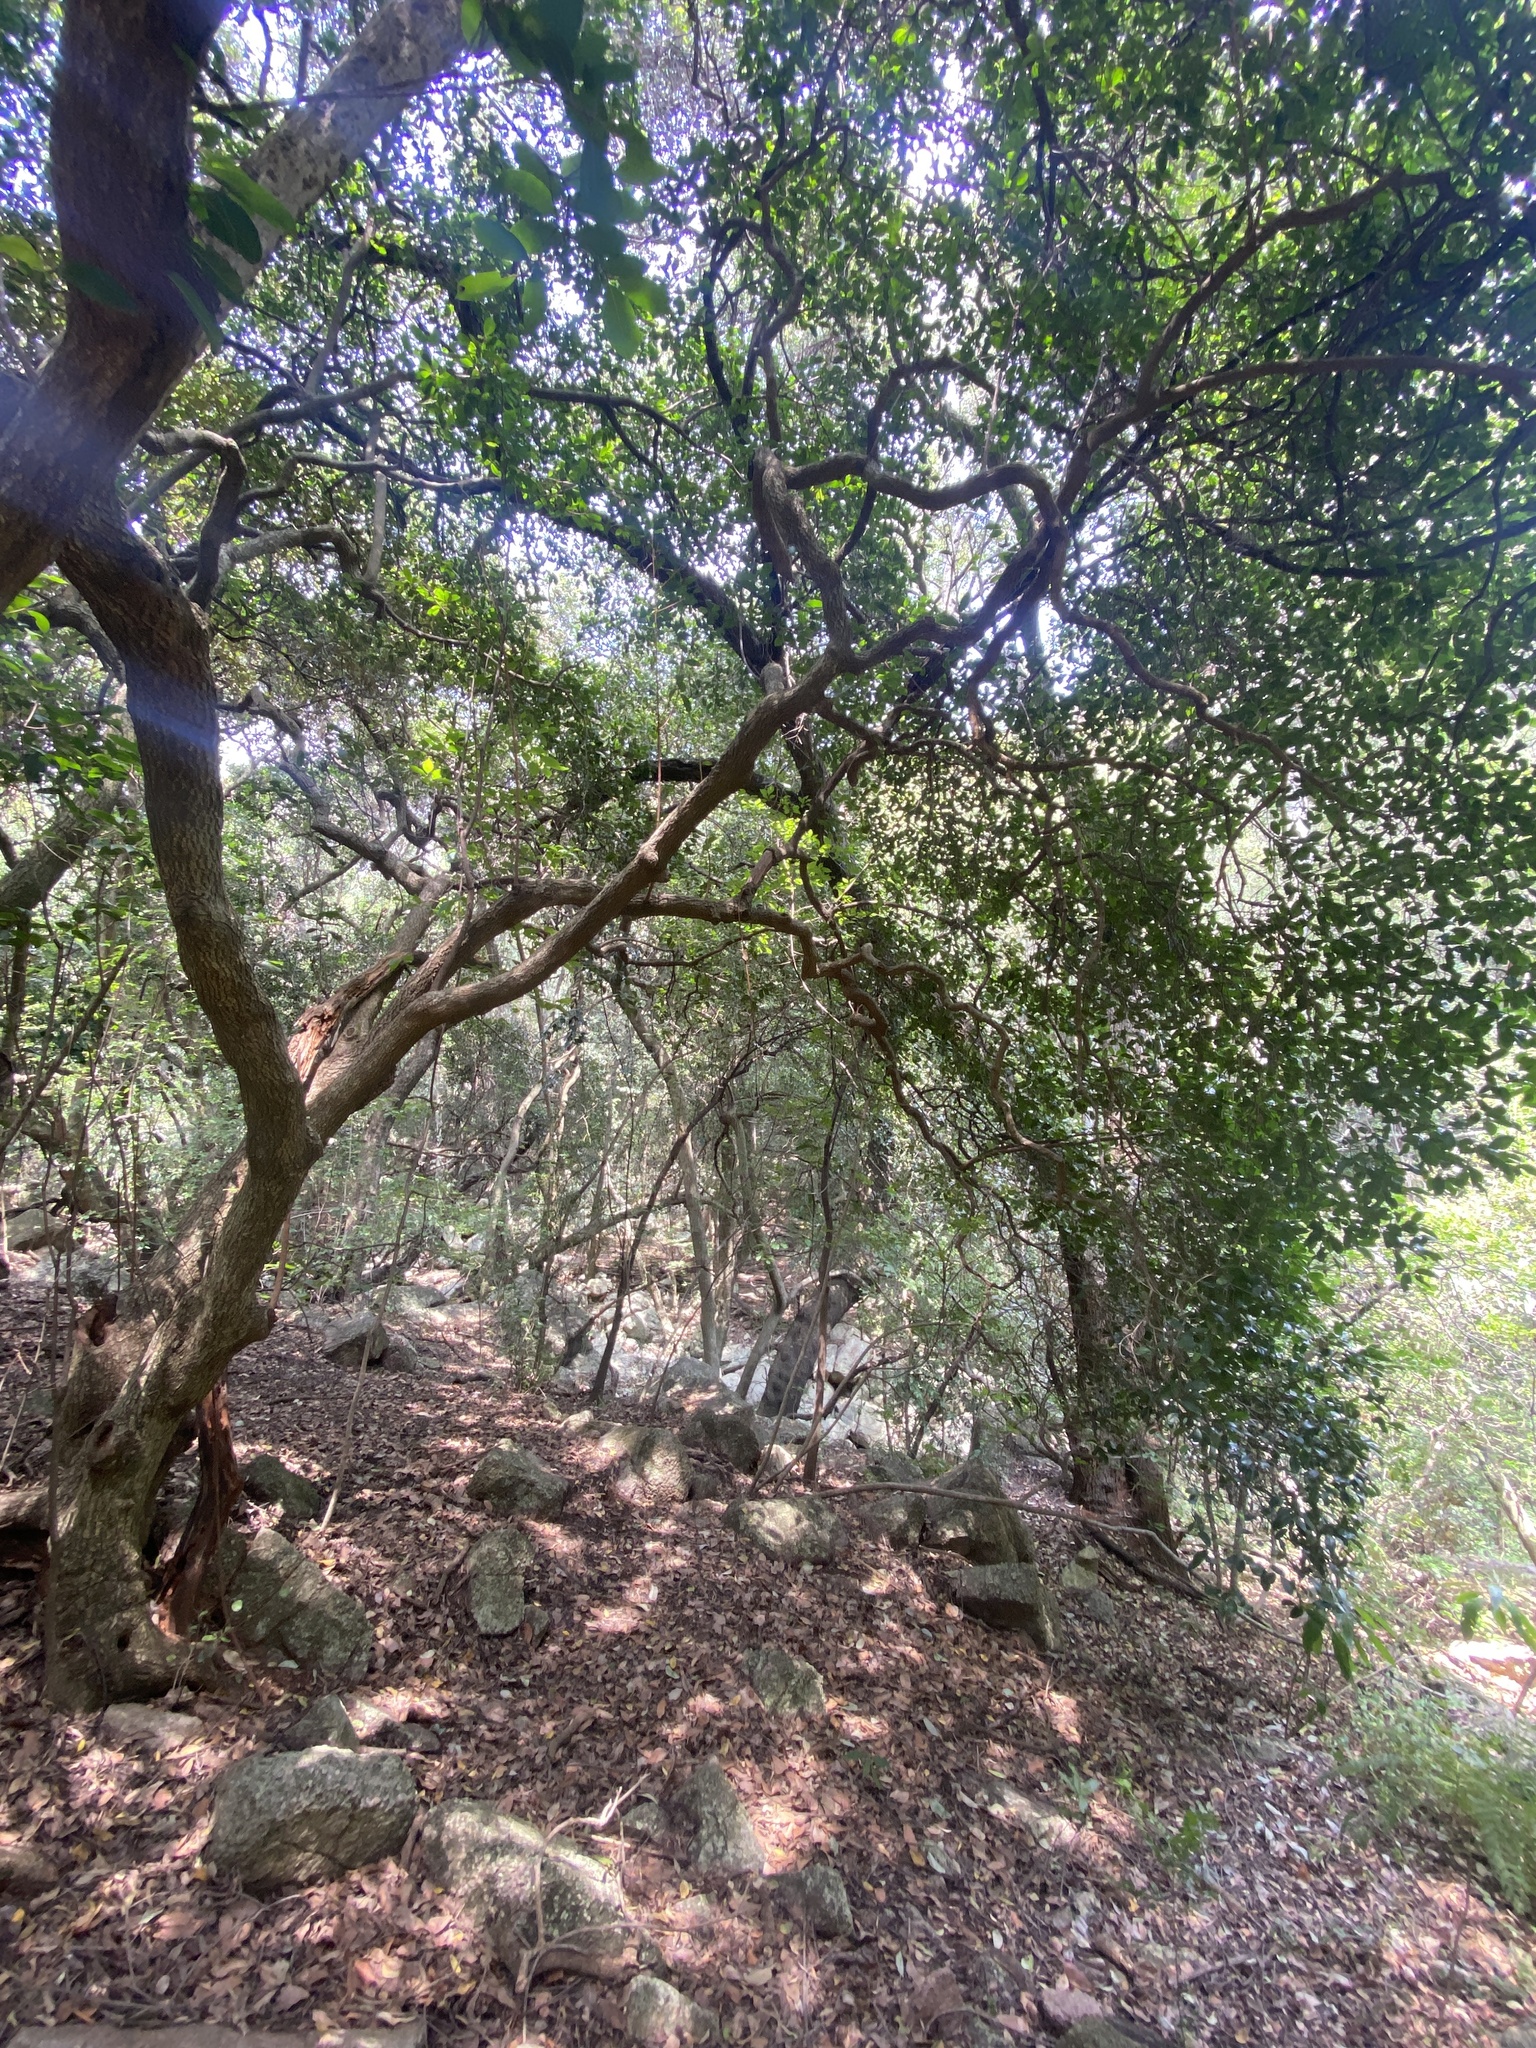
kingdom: Plantae
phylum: Tracheophyta
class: Magnoliopsida
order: Ericales
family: Sapotaceae
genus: Mimusops
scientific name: Mimusops zeyheri
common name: Transvaal red milkwood
